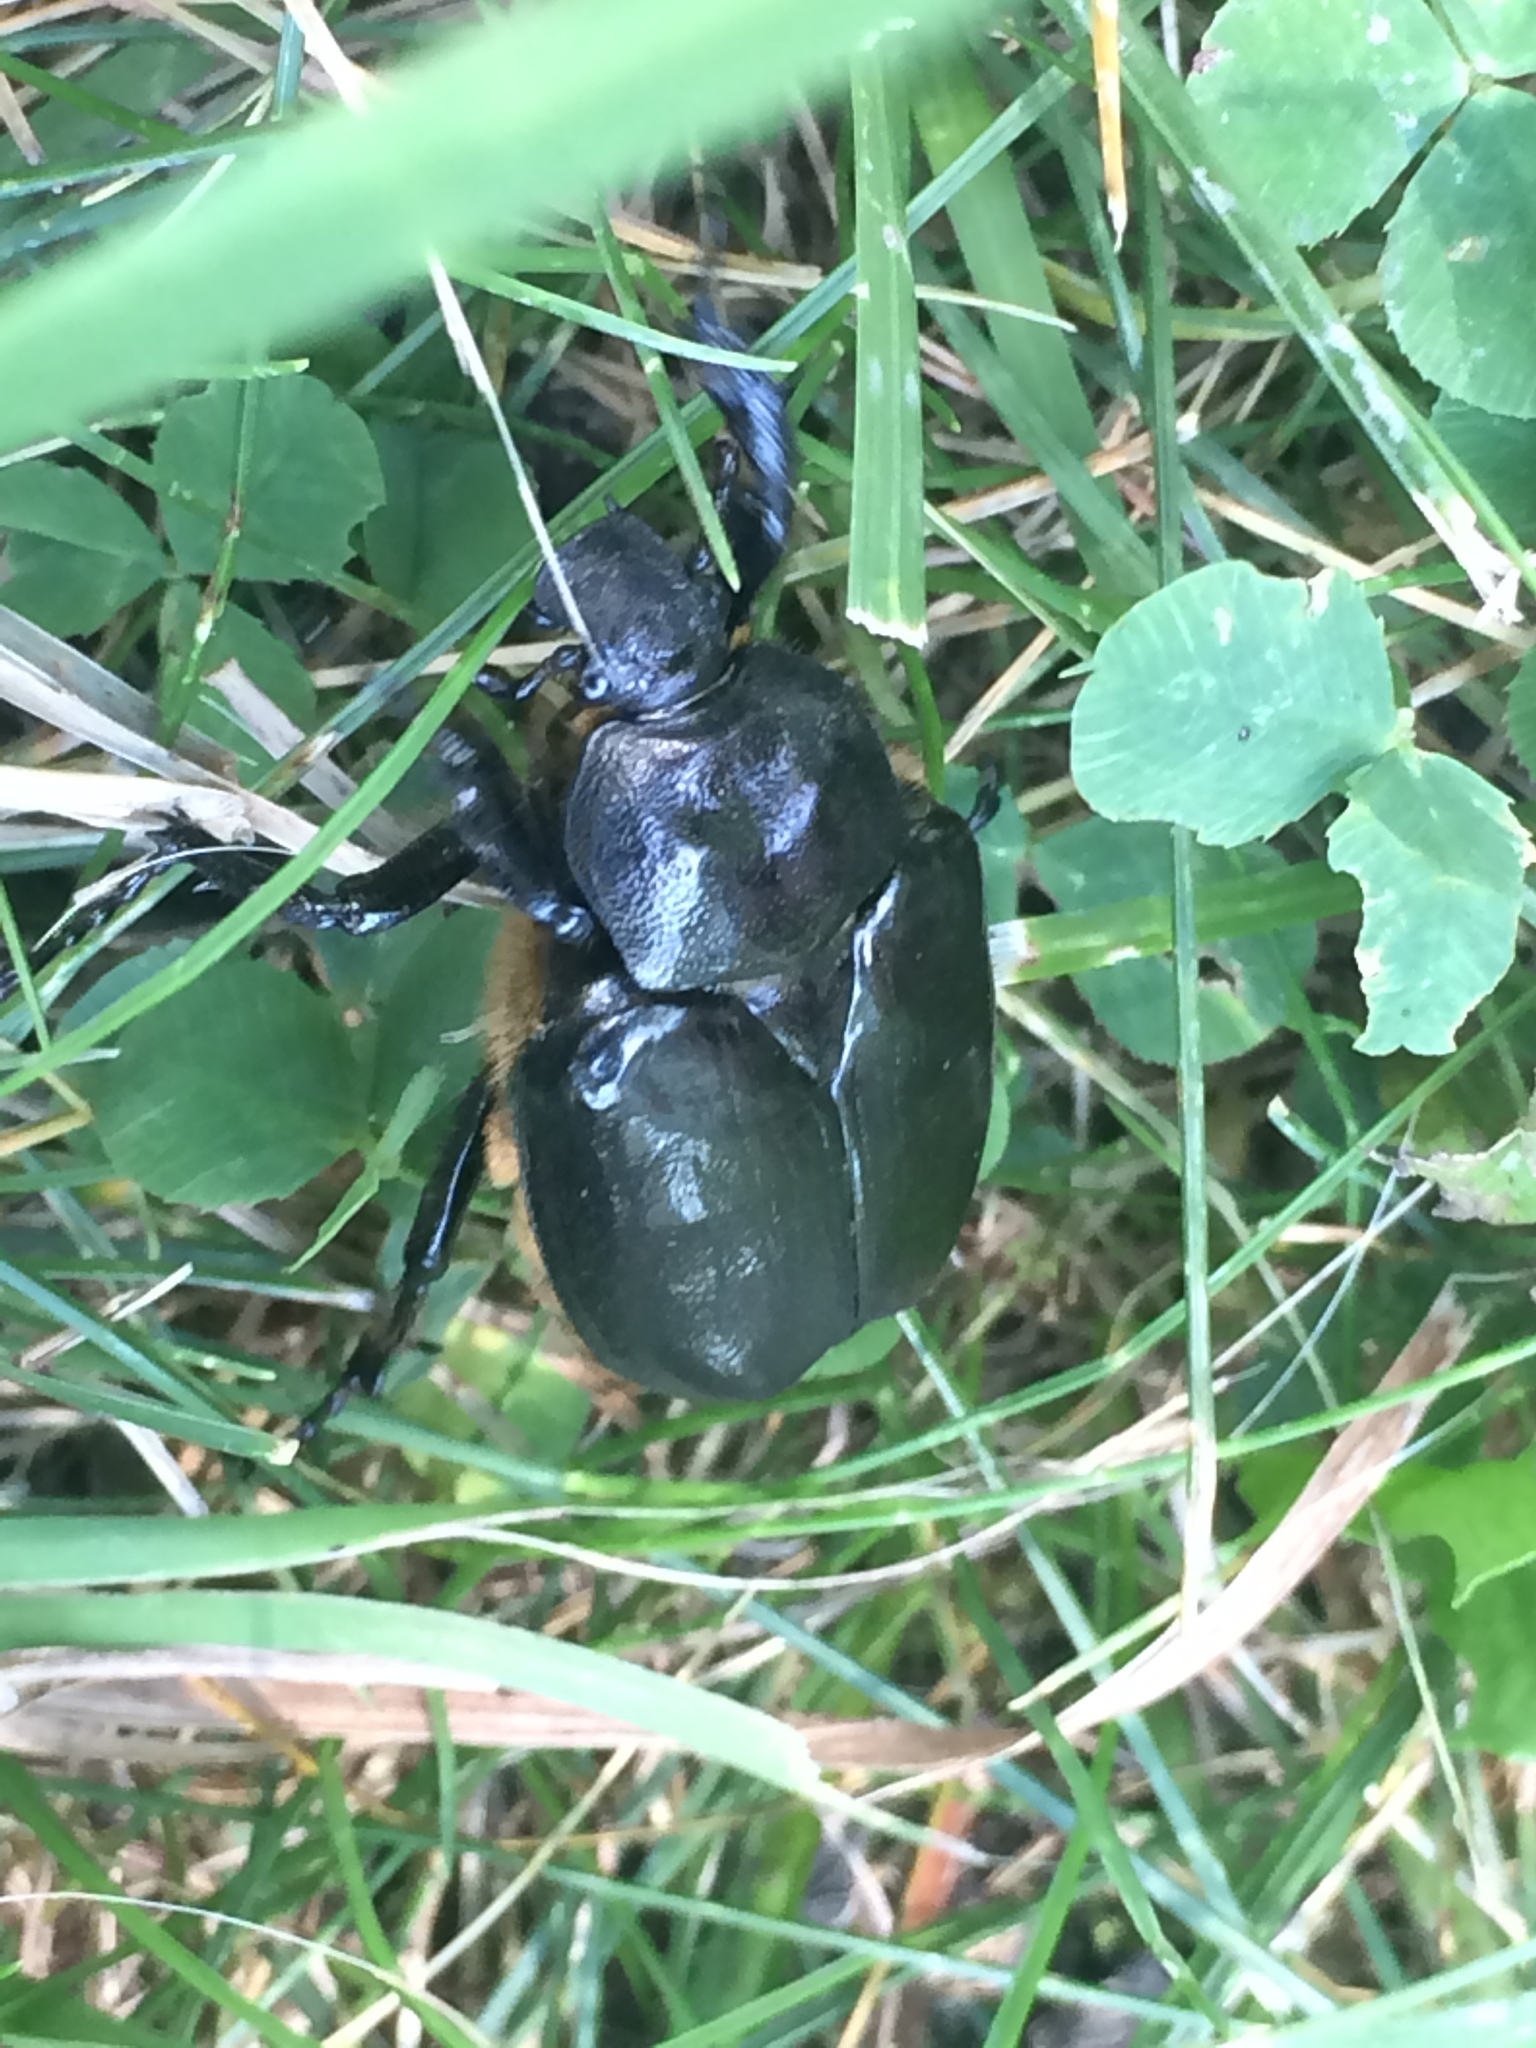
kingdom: Animalia
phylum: Arthropoda
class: Insecta
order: Coleoptera
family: Scarabaeidae
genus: Osmoderma
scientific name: Osmoderma eremicola
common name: Hermit flower beetle
